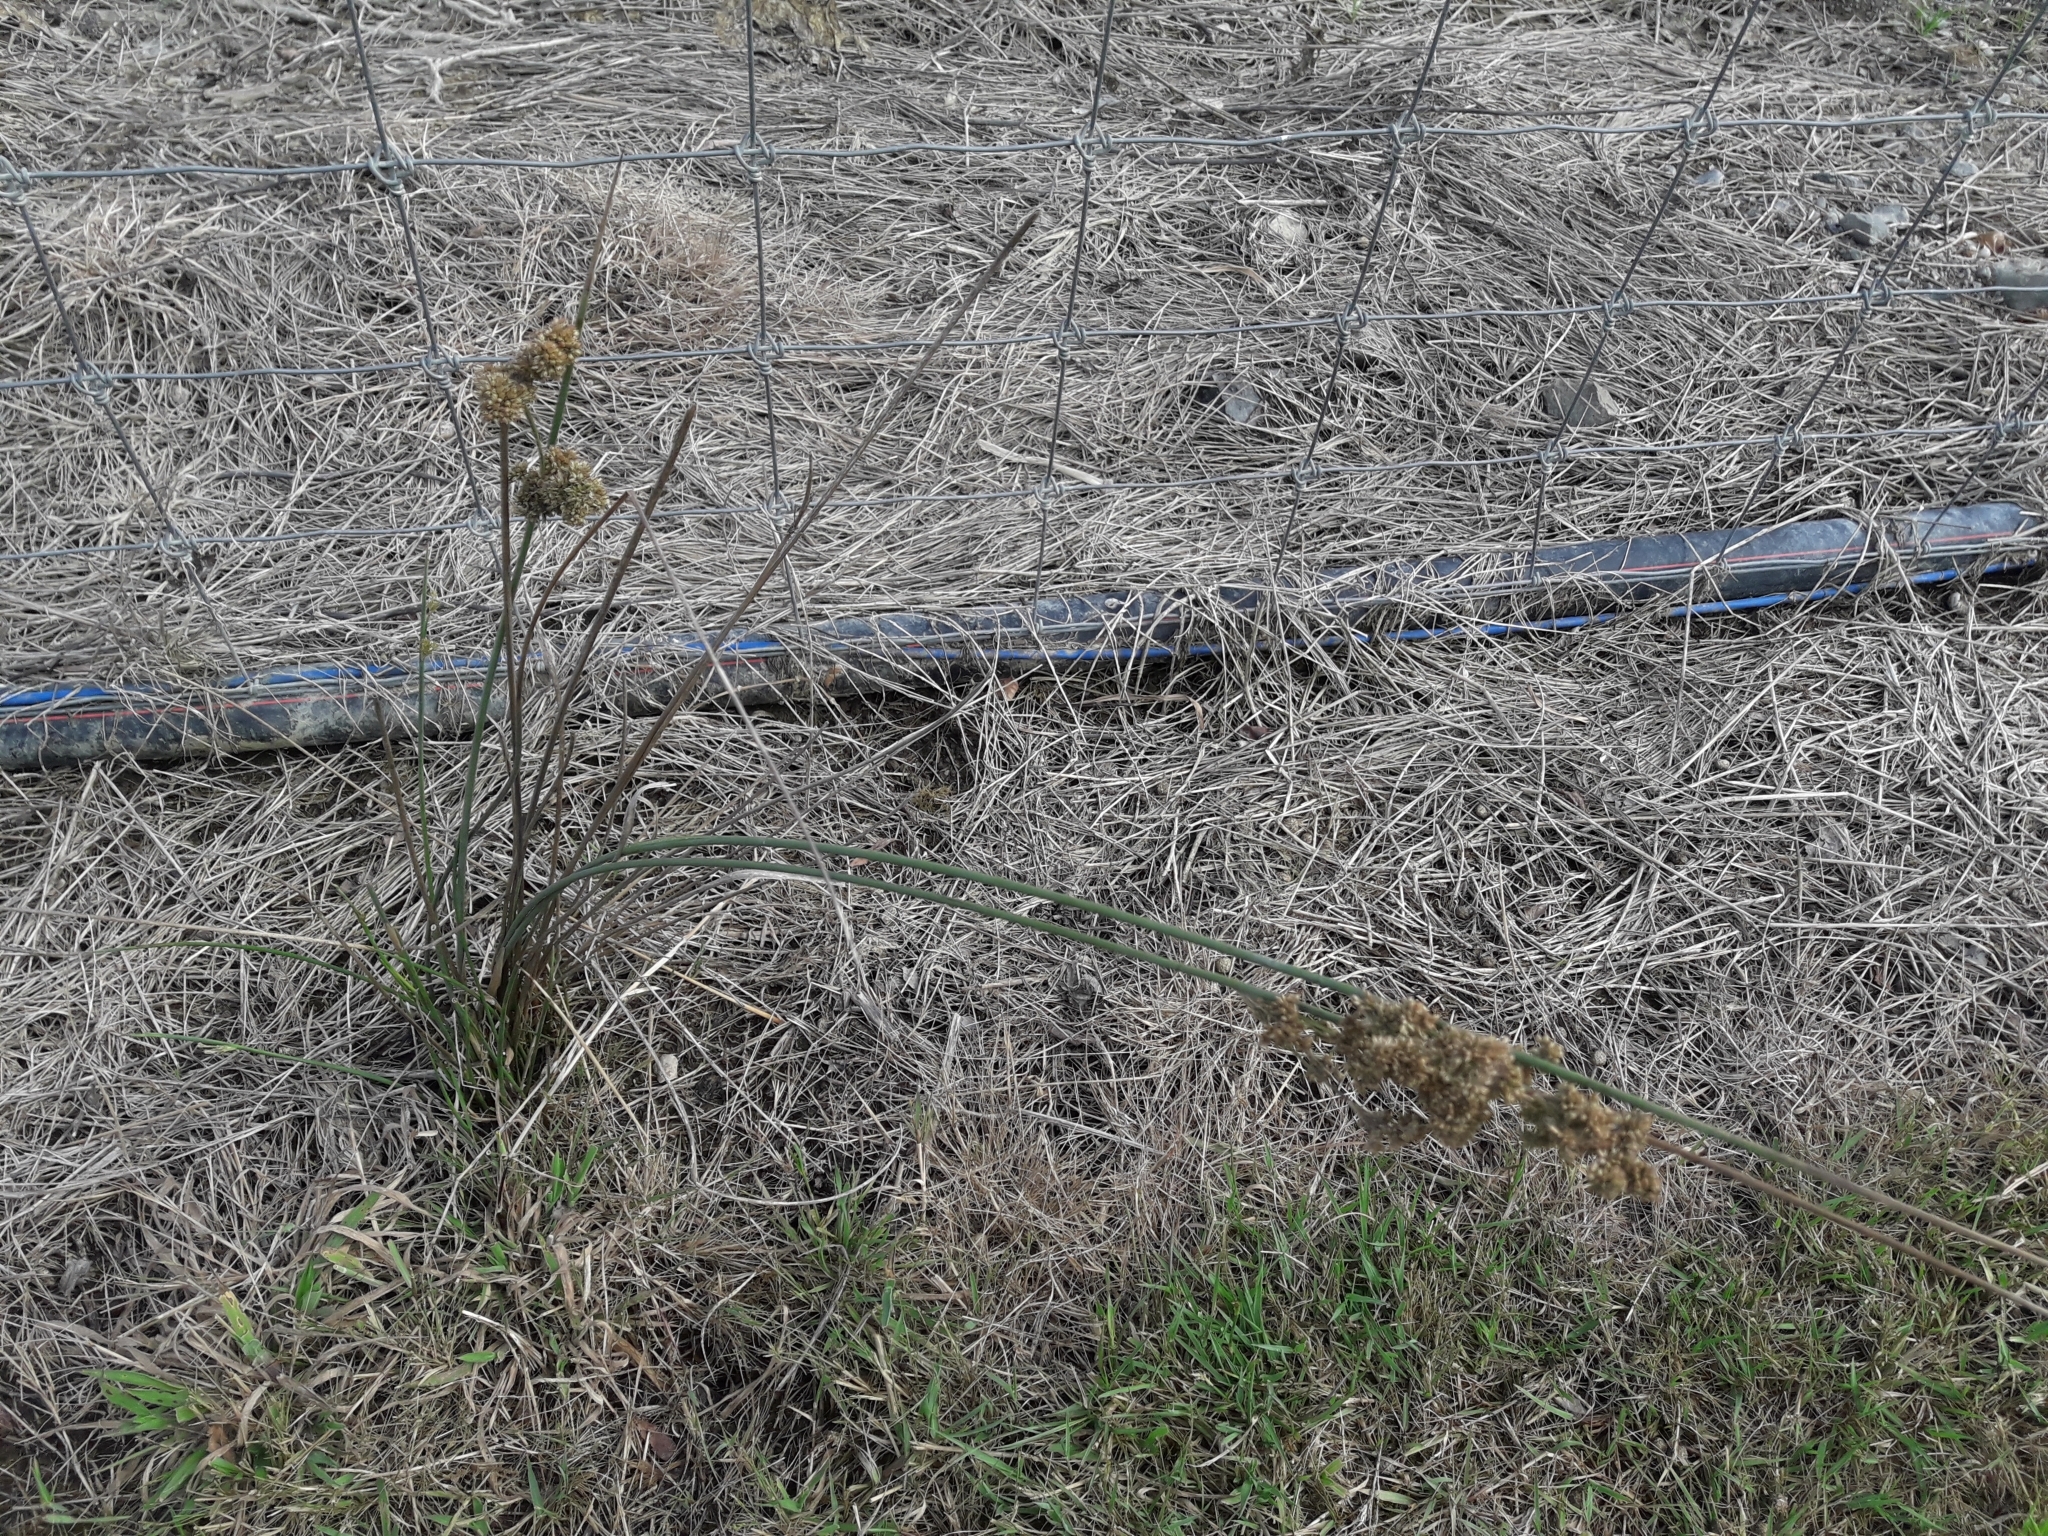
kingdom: Plantae
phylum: Tracheophyta
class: Liliopsida
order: Poales
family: Juncaceae
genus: Juncus
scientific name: Juncus australis
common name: Austral rush
